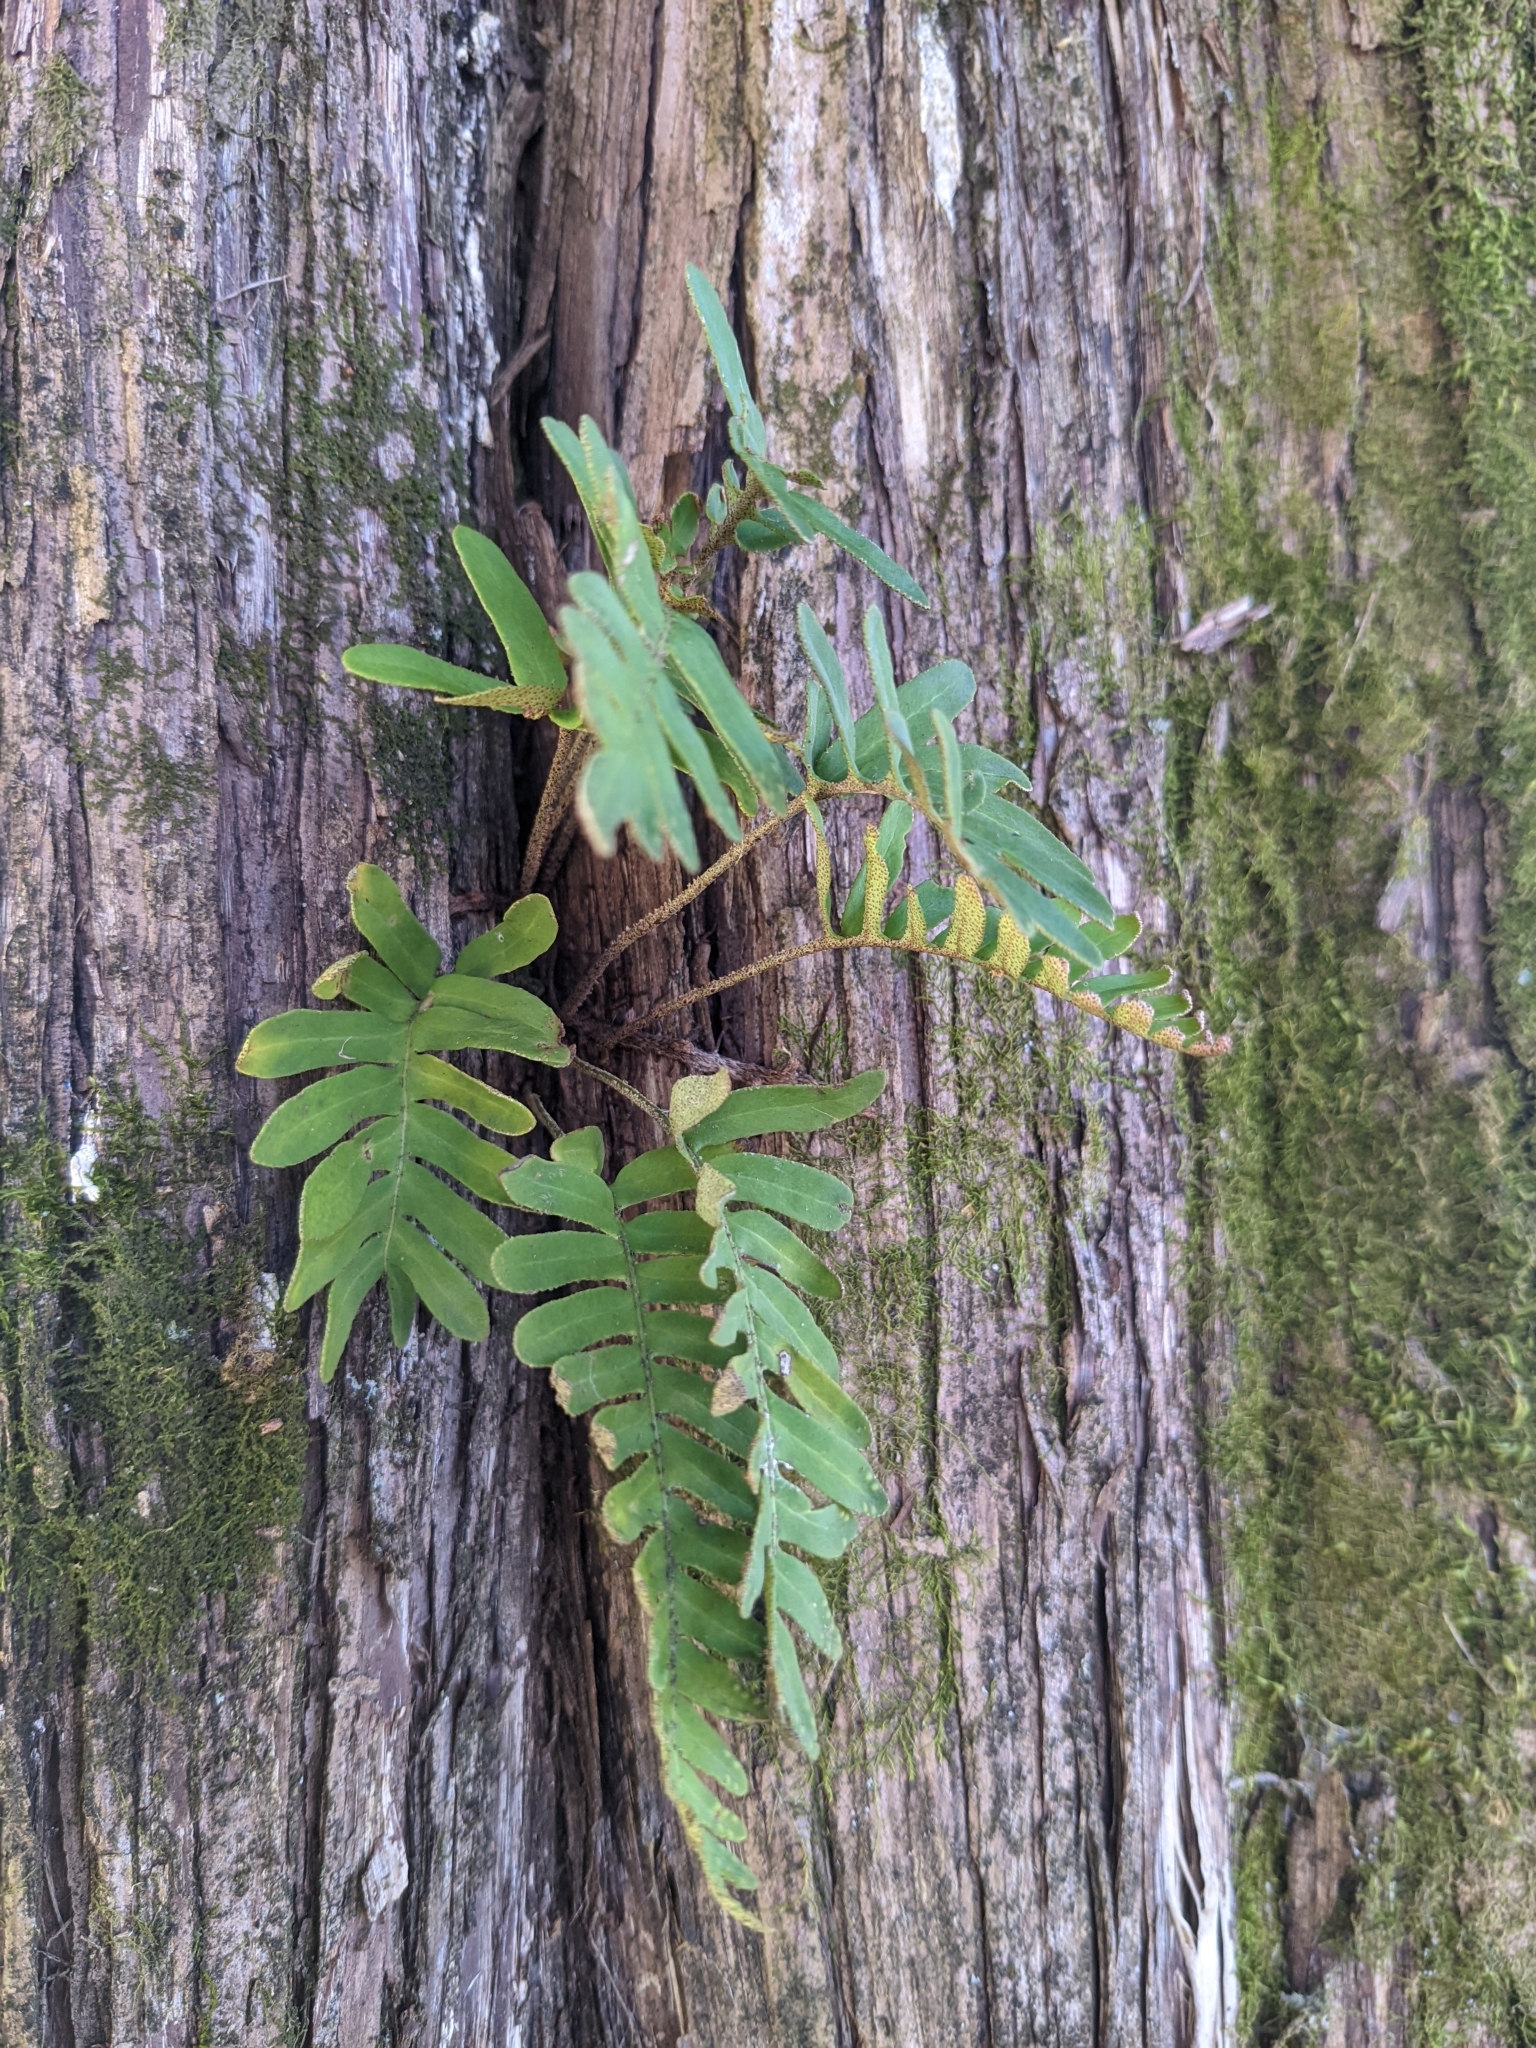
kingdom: Plantae
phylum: Tracheophyta
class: Polypodiopsida
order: Polypodiales
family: Polypodiaceae
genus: Pleopeltis
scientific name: Pleopeltis michauxiana
